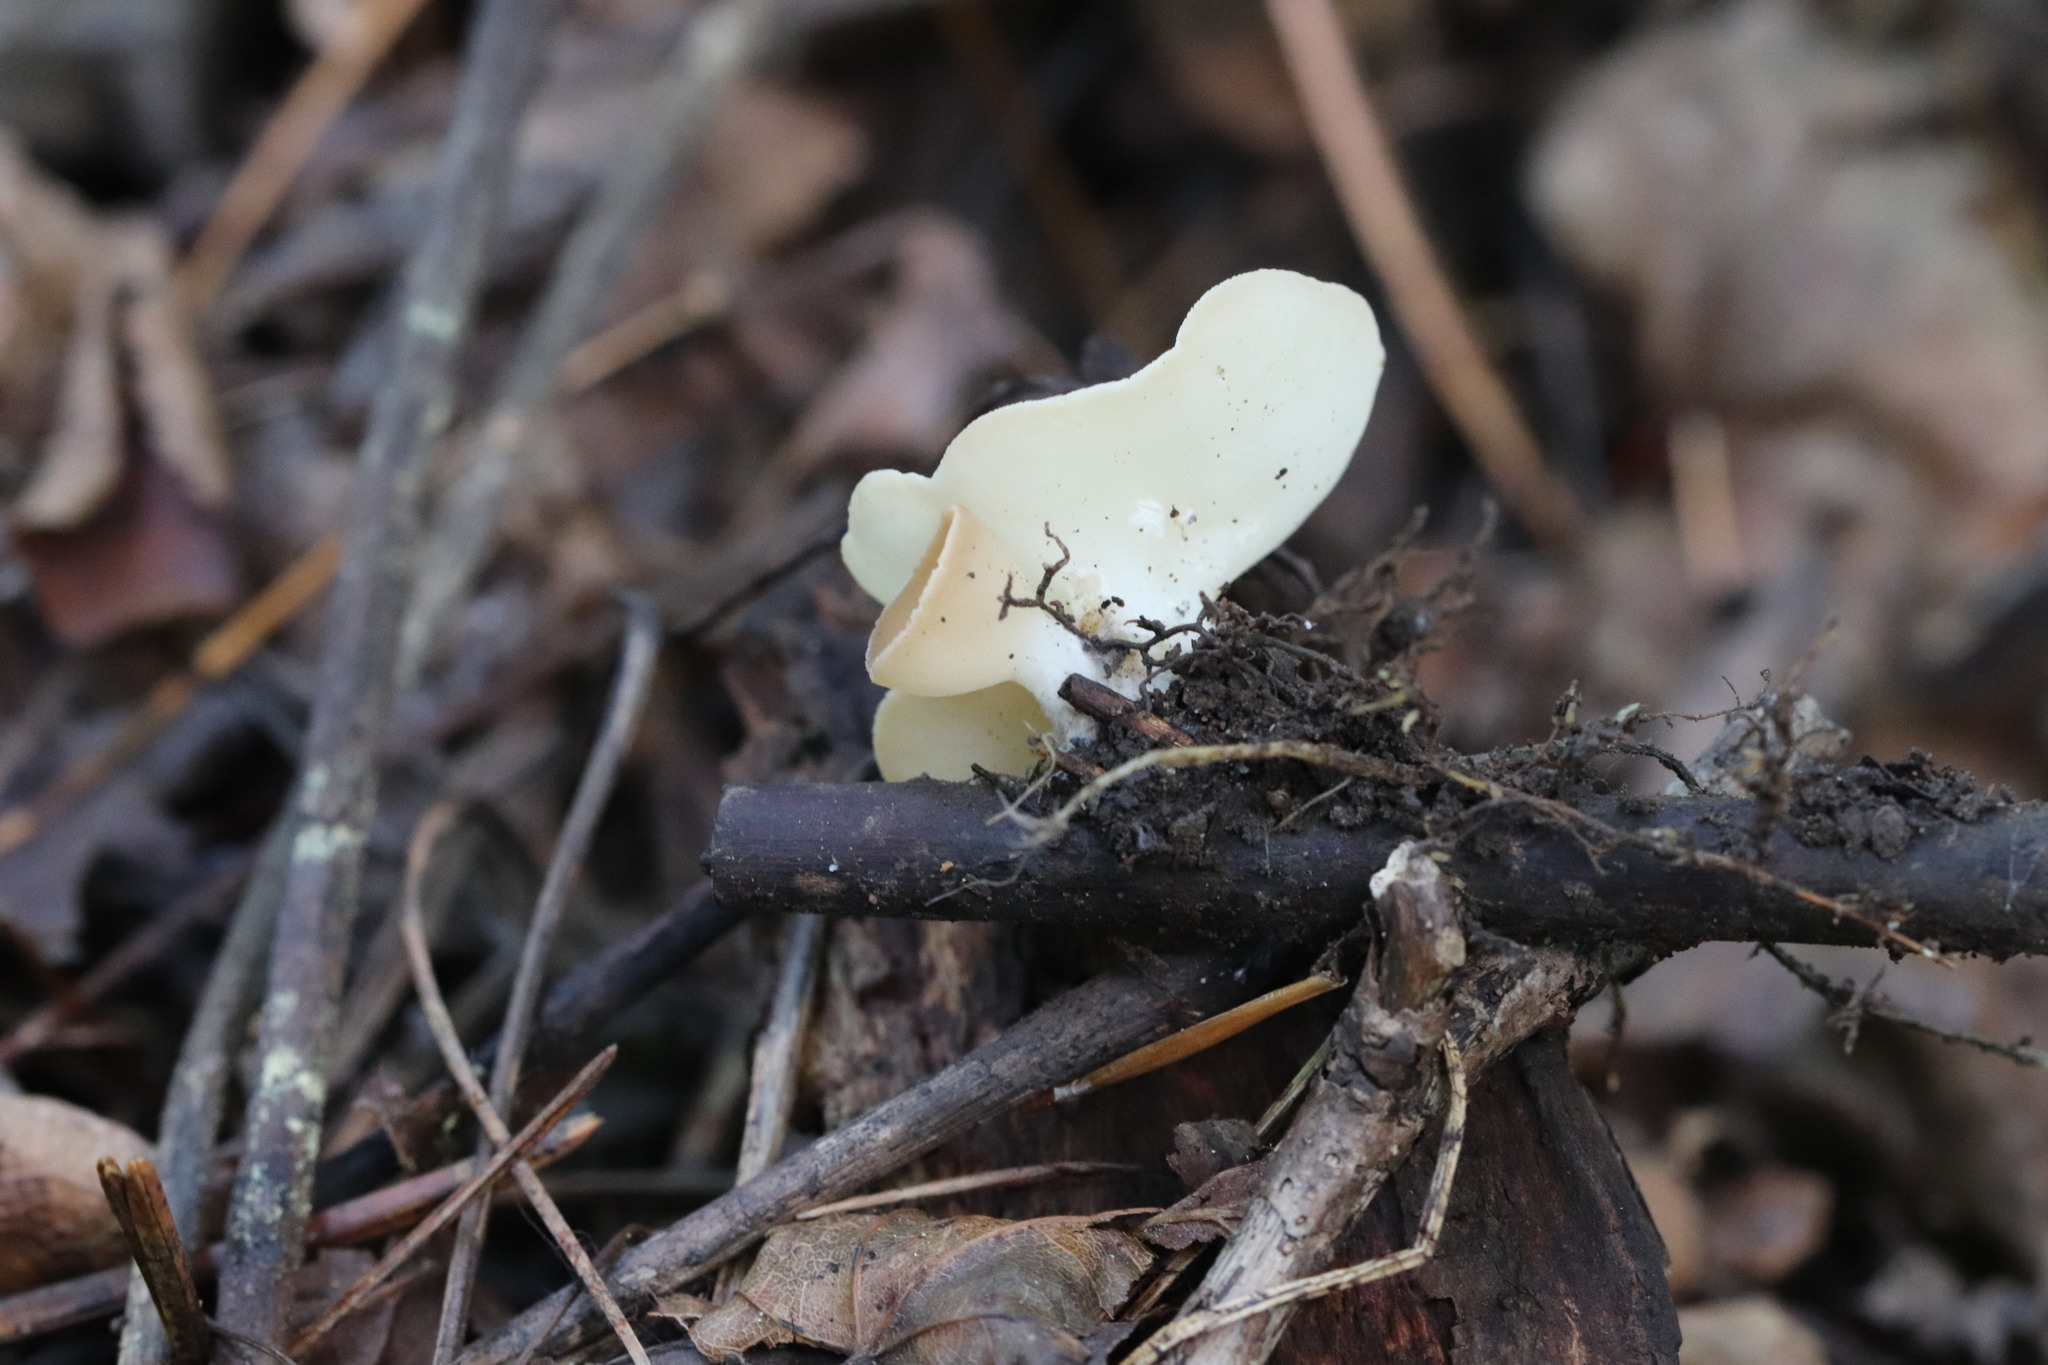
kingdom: Fungi
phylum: Ascomycota
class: Pezizomycetes
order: Pezizales
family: Sarcoscyphaceae
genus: Sarcoscypha
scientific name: Sarcoscypha vassiljevae
